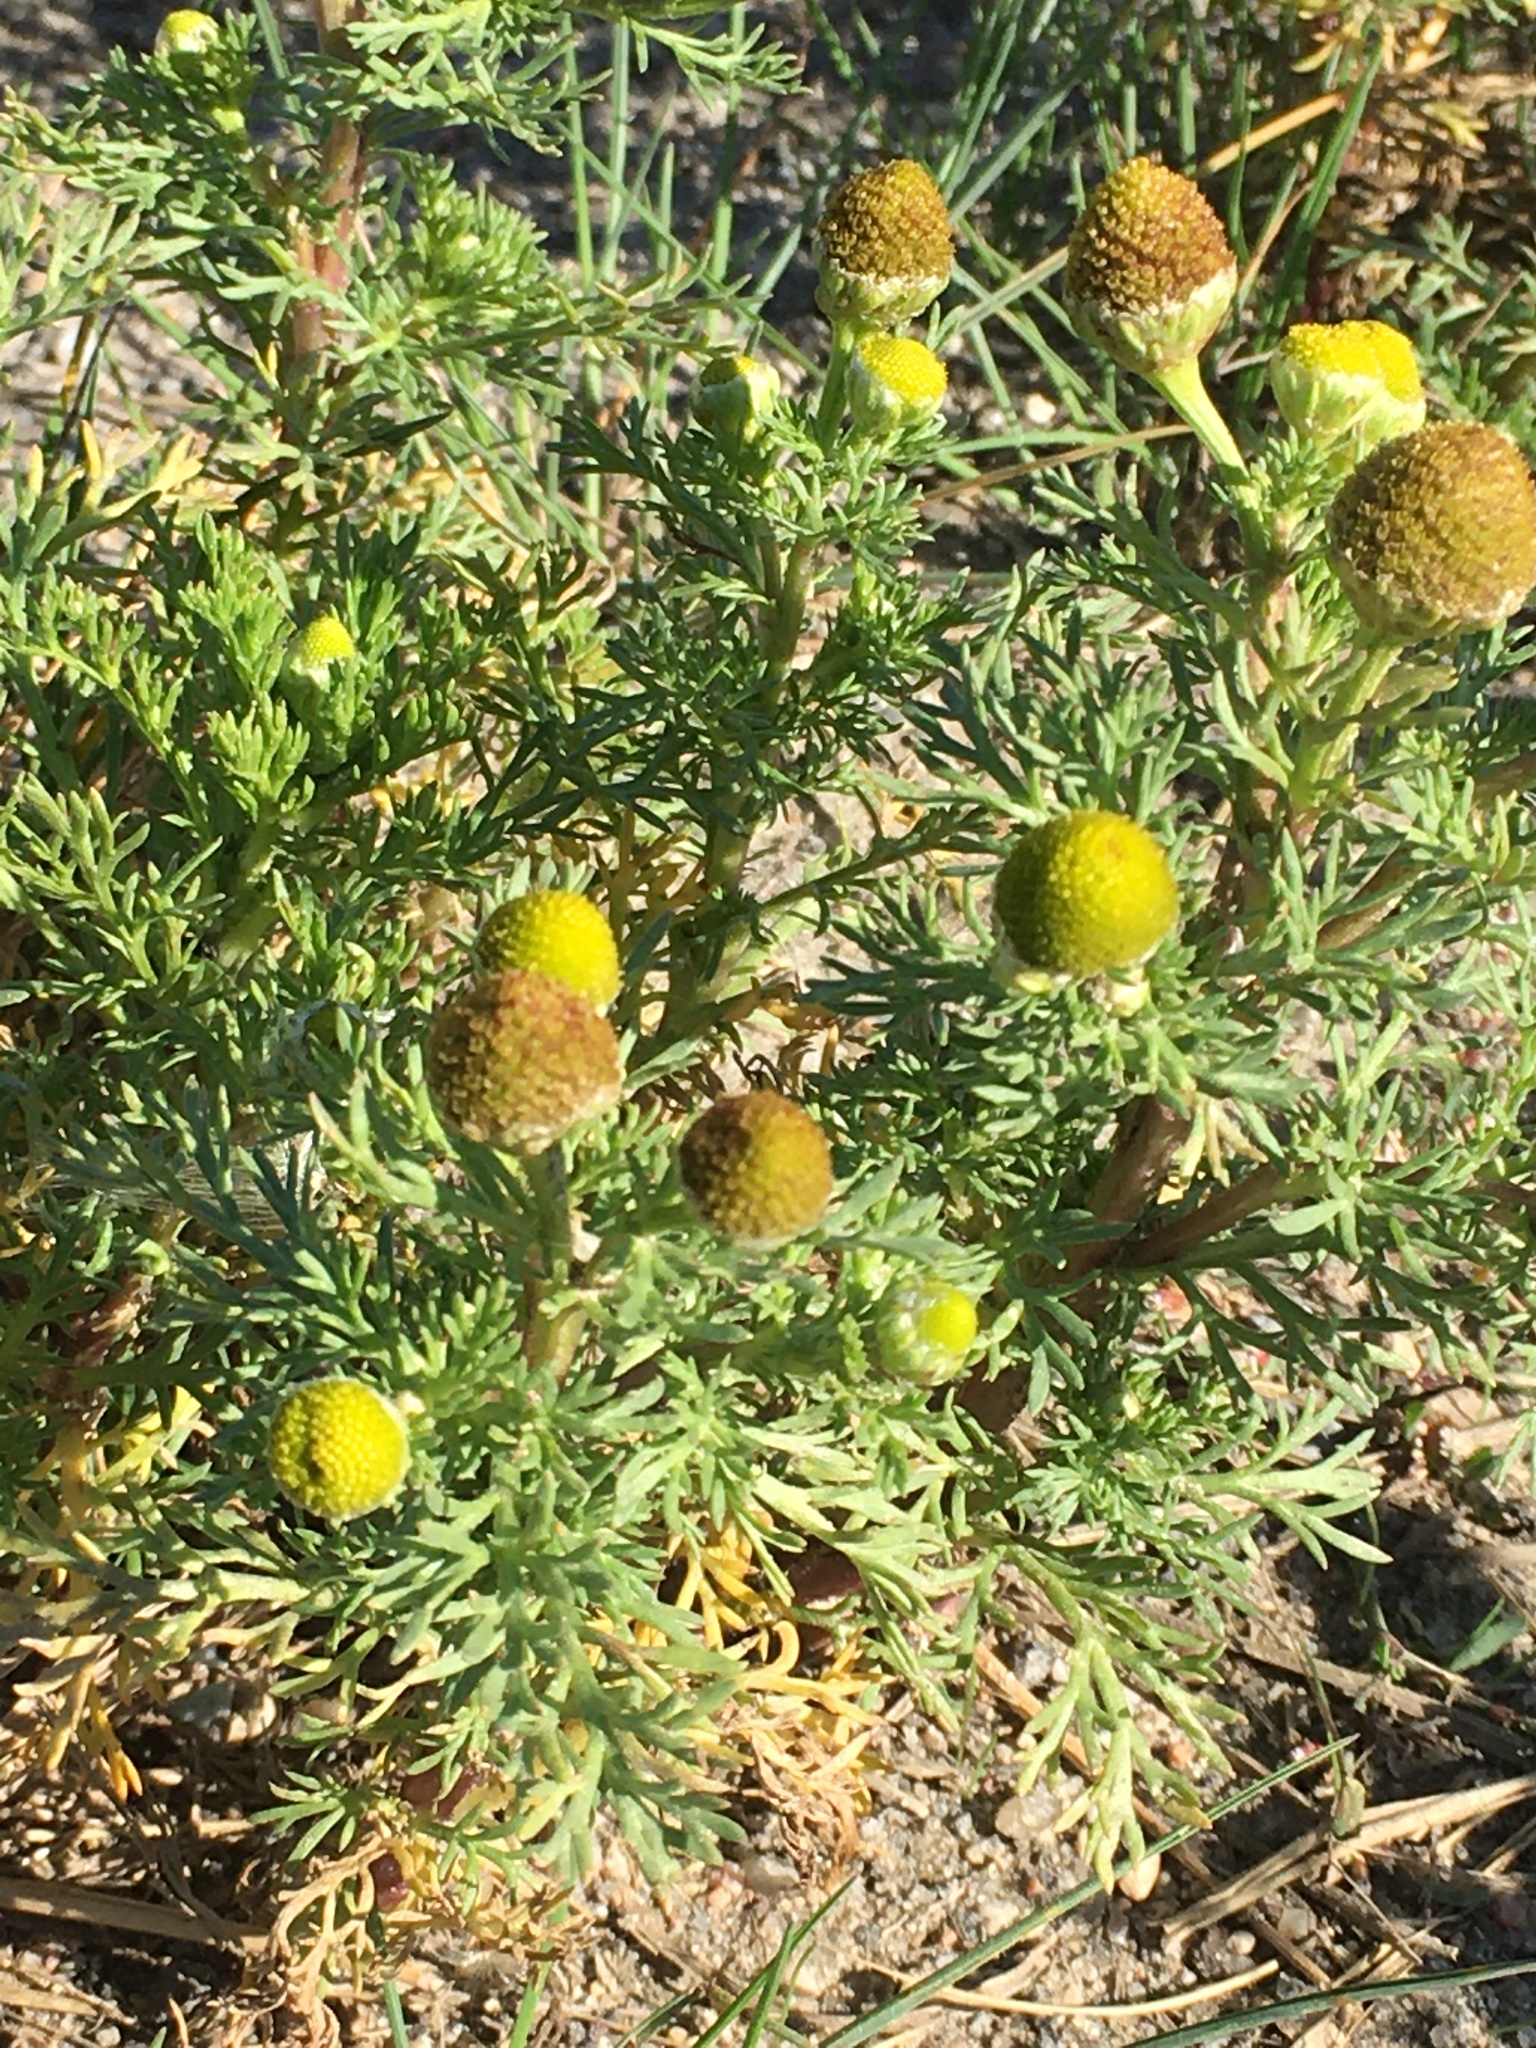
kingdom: Plantae
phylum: Tracheophyta
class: Magnoliopsida
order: Asterales
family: Asteraceae
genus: Matricaria
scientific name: Matricaria discoidea
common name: Disc mayweed
